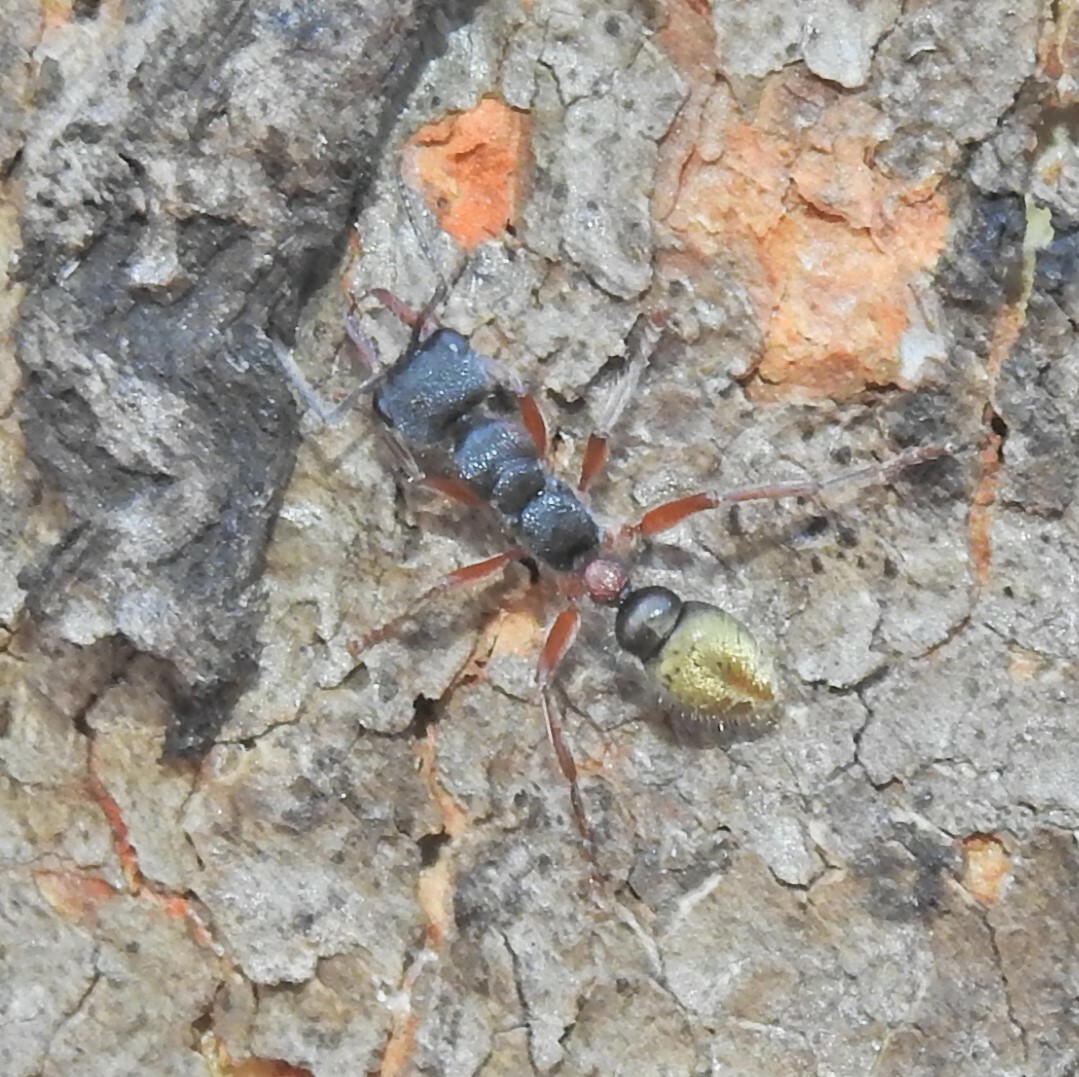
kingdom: Animalia
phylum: Arthropoda
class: Insecta
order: Hymenoptera
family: Formicidae
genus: Myrmecia
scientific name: Myrmecia chrysogaster
